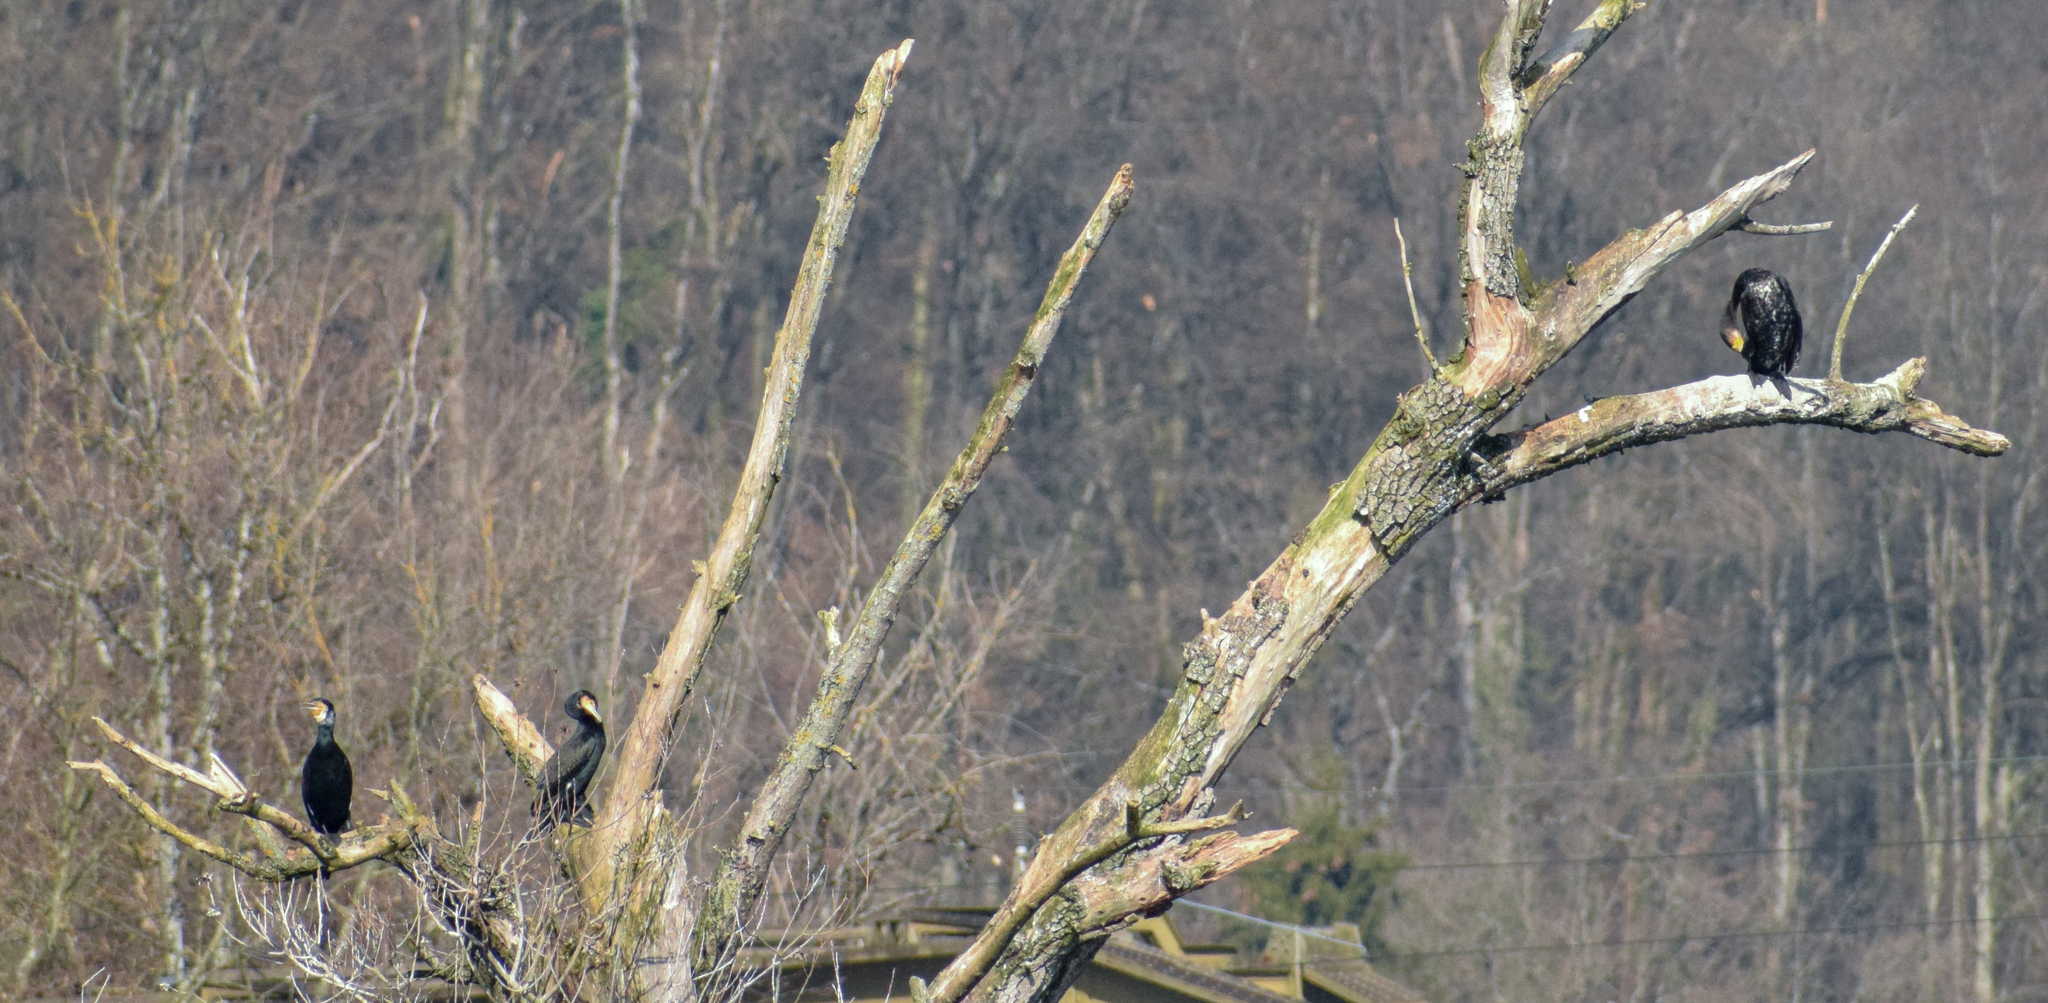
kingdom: Animalia
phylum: Chordata
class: Aves
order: Suliformes
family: Phalacrocoracidae
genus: Phalacrocorax
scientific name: Phalacrocorax carbo
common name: Great cormorant
